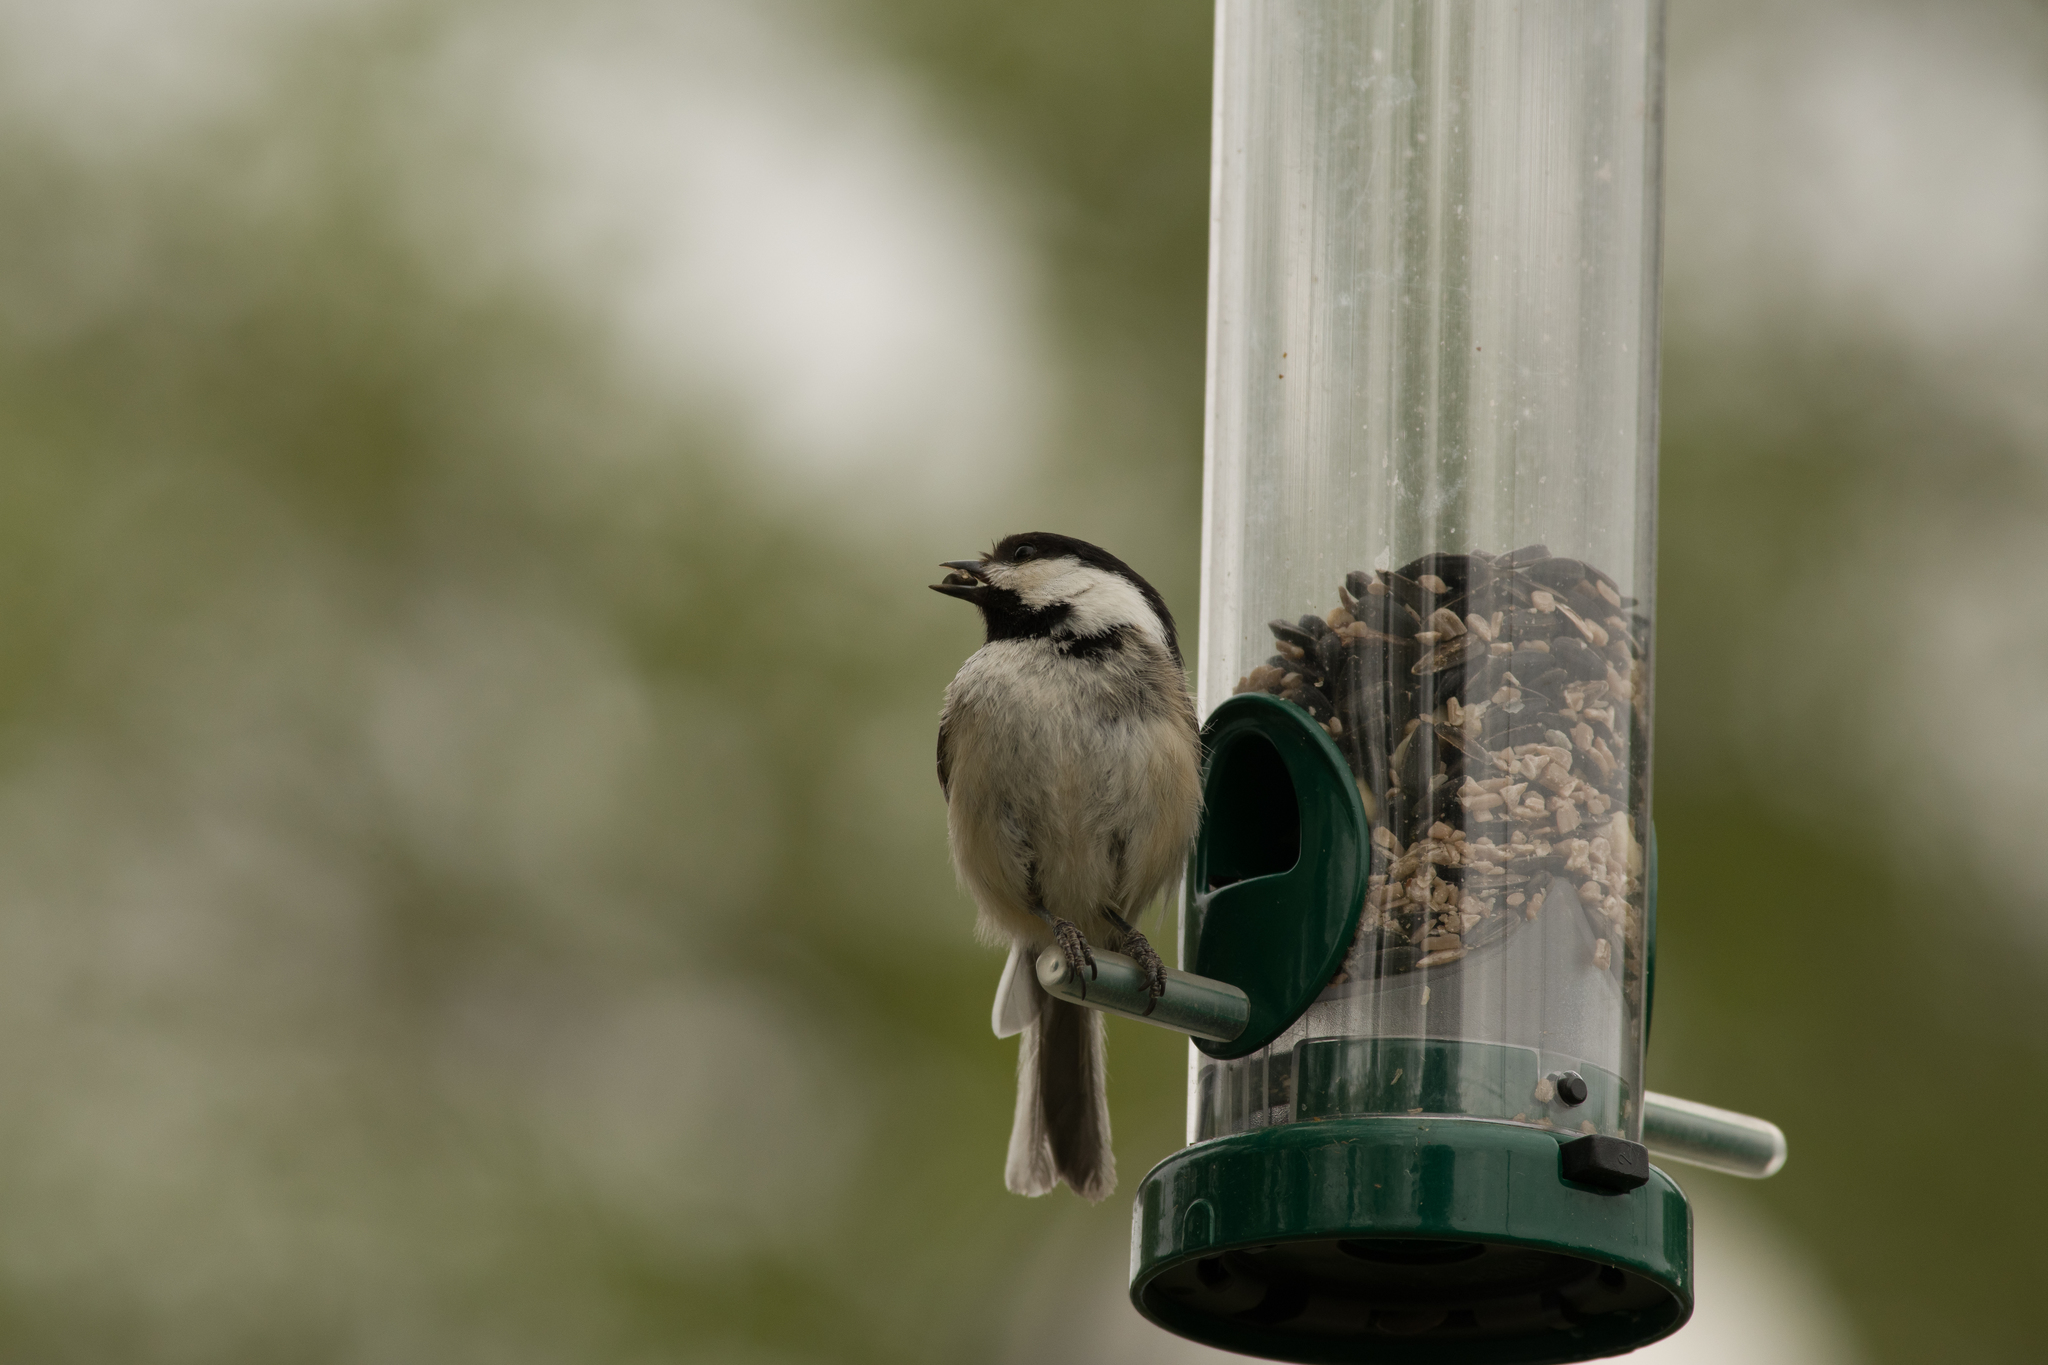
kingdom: Animalia
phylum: Chordata
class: Aves
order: Passeriformes
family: Paridae
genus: Poecile
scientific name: Poecile atricapillus
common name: Black-capped chickadee
